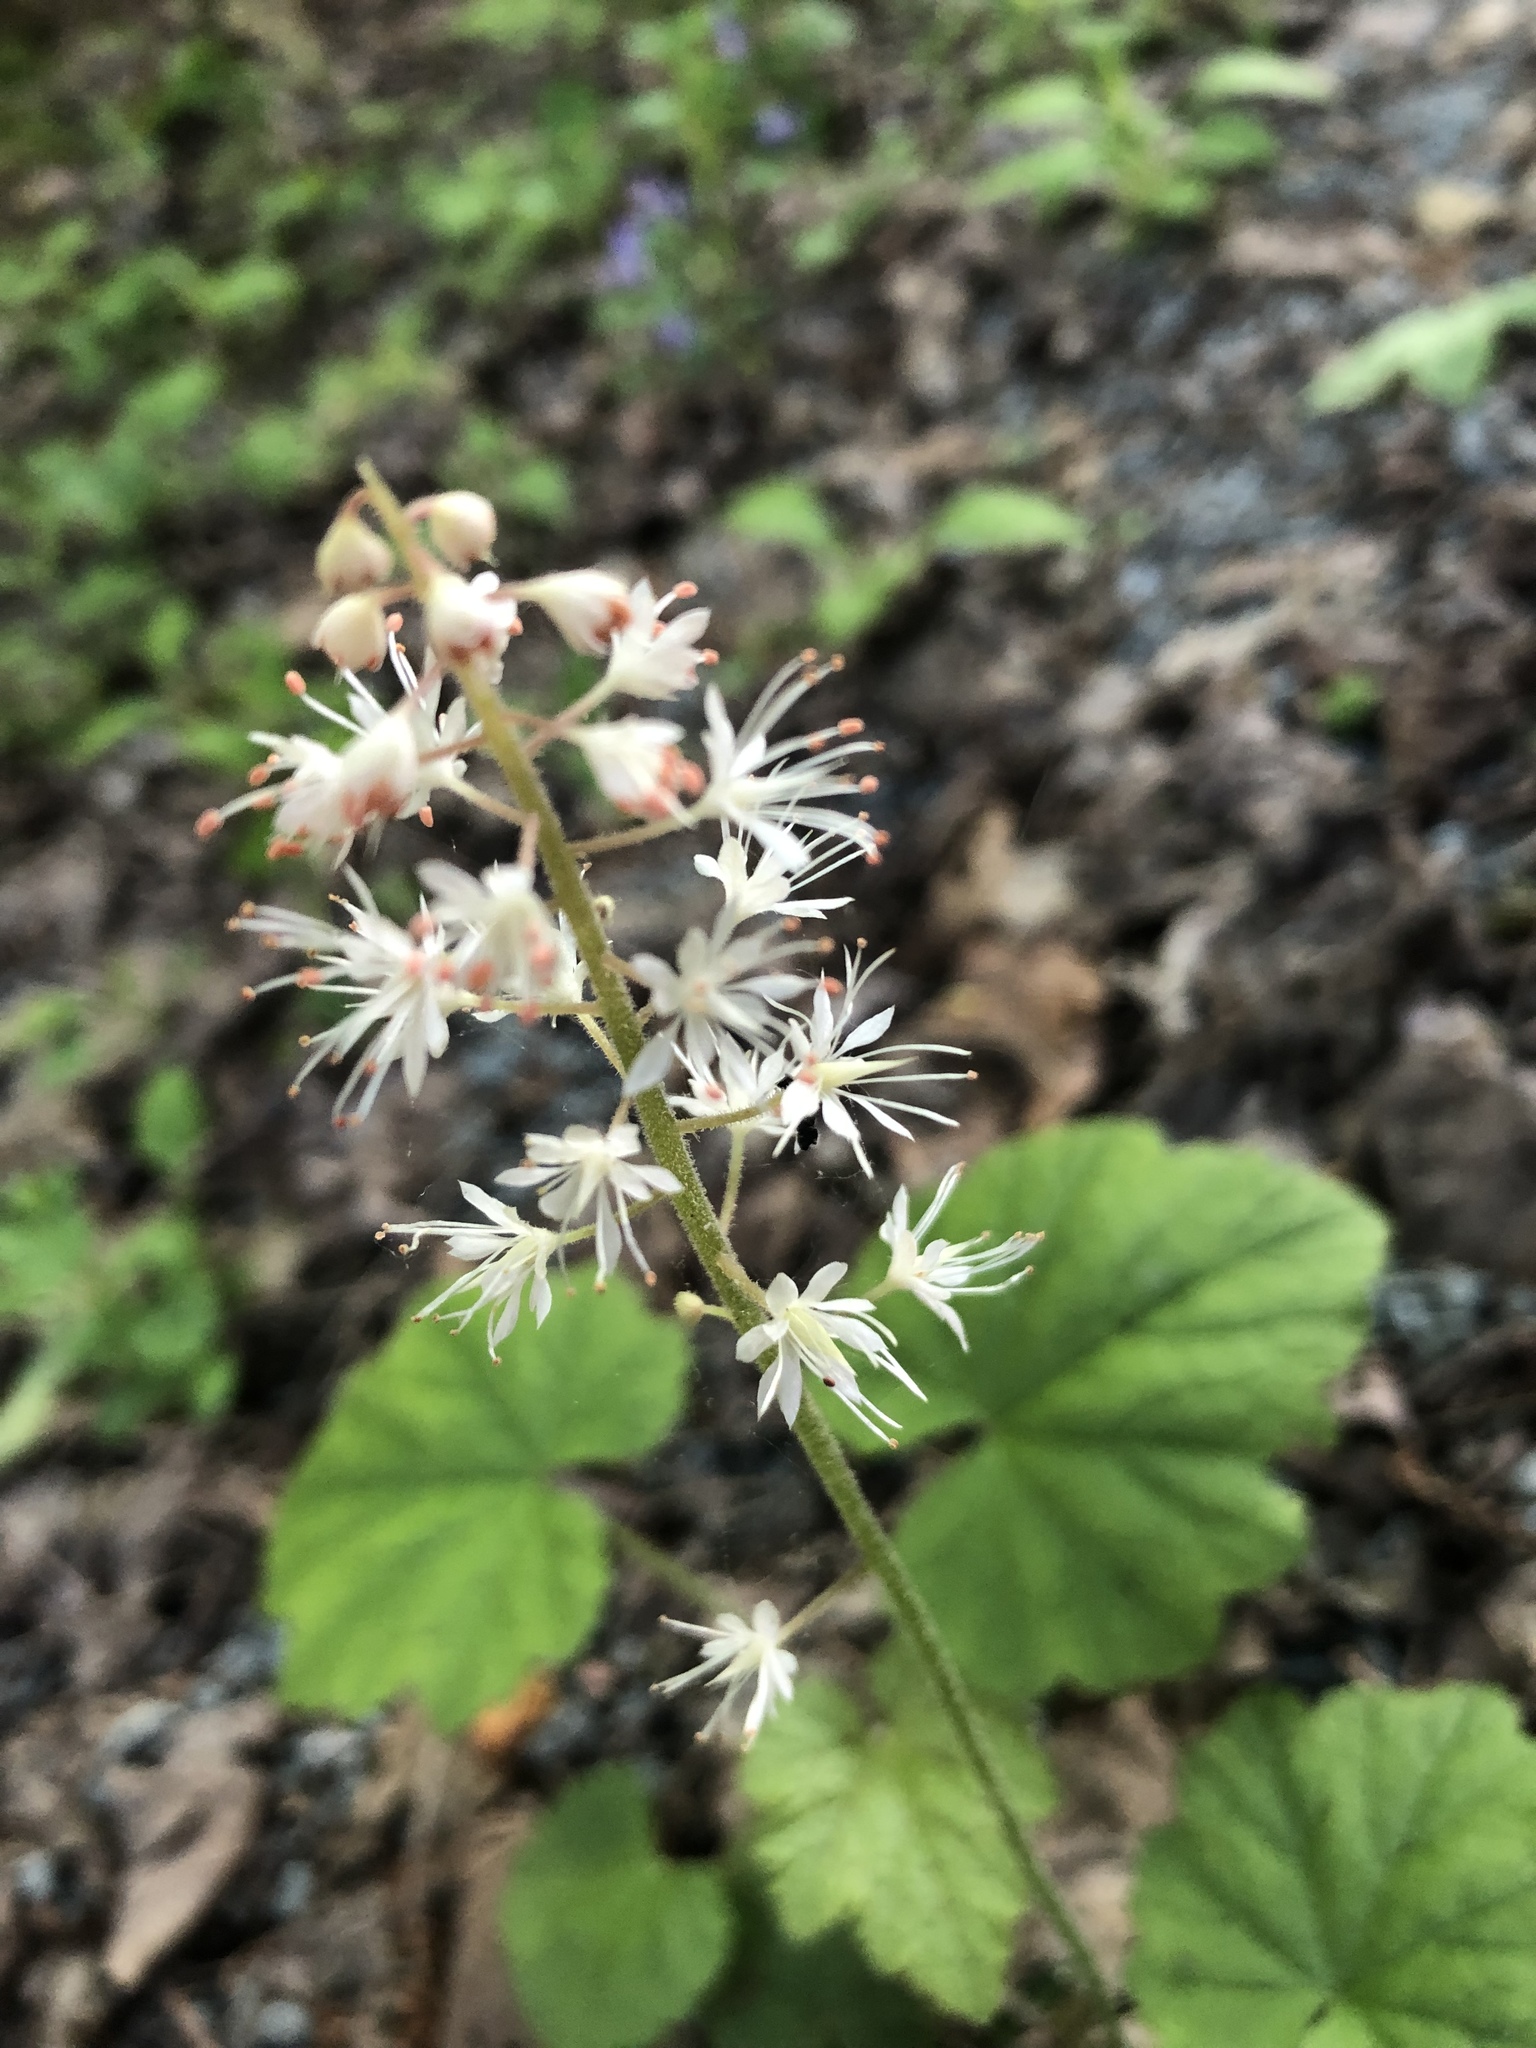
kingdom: Plantae
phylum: Tracheophyta
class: Magnoliopsida
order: Saxifragales
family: Saxifragaceae
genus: Tiarella
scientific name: Tiarella stolonifera
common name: Stoloniferous foamflower
